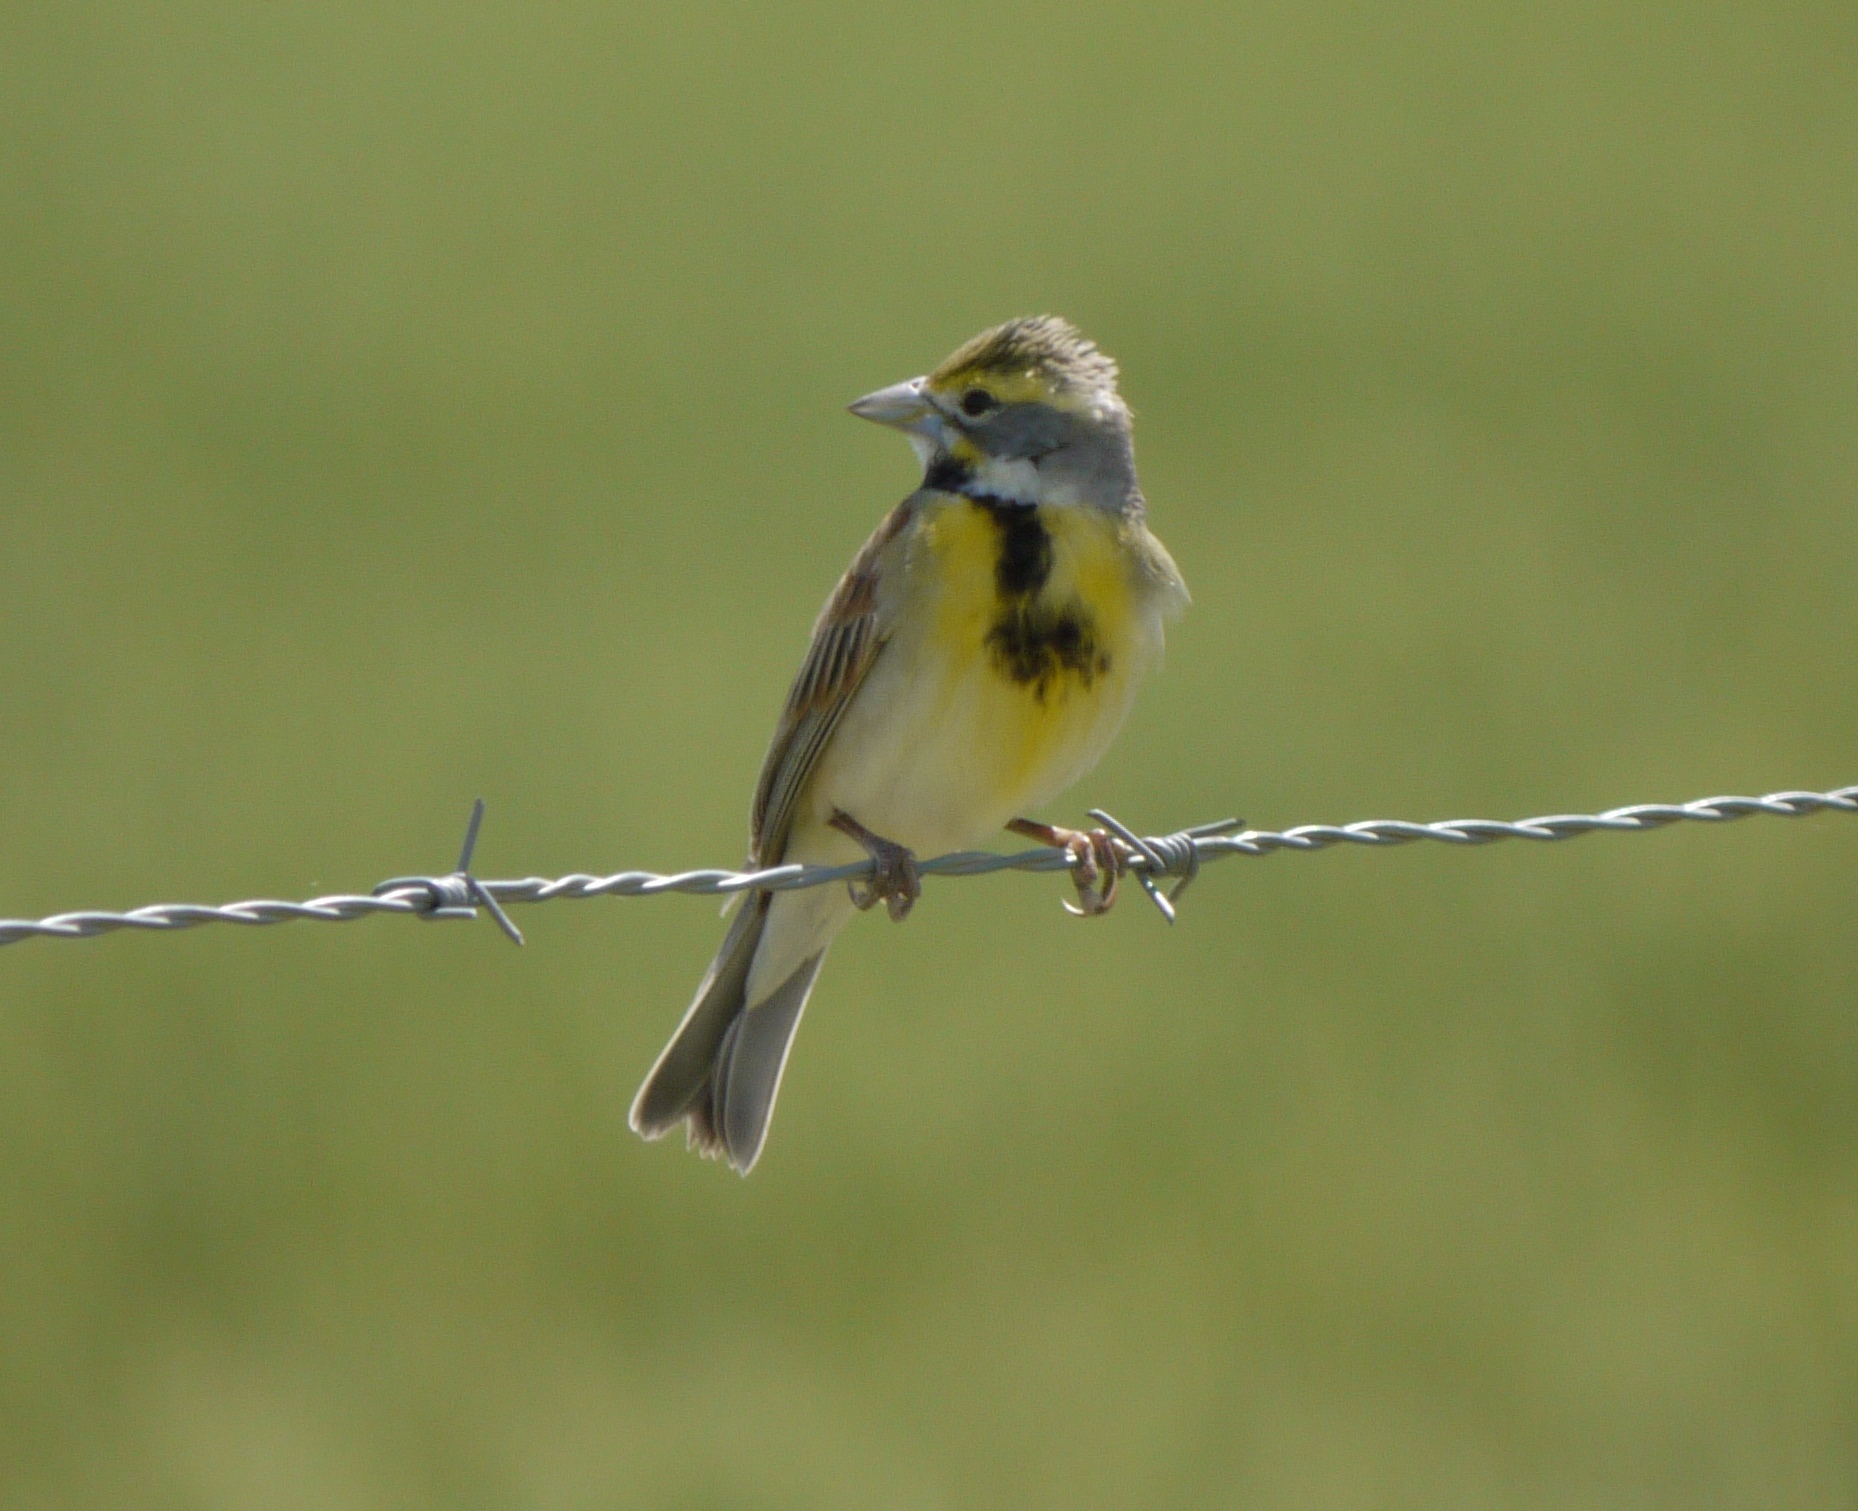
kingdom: Animalia
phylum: Chordata
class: Aves
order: Passeriformes
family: Cardinalidae
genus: Spiza
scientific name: Spiza americana
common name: Dickcissel
